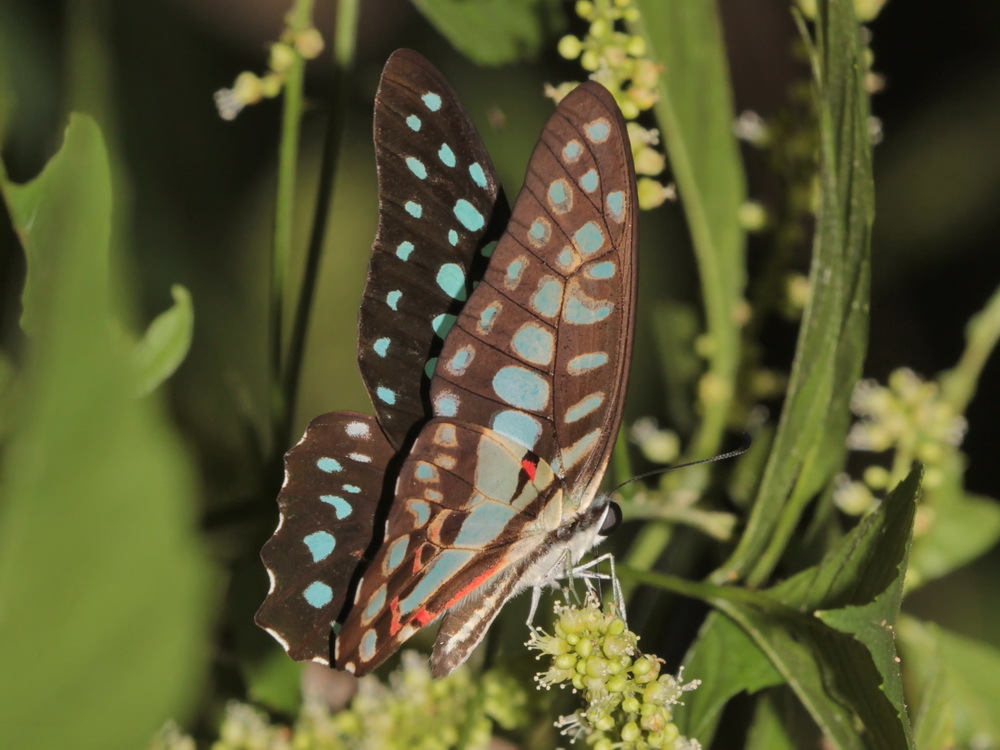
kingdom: Animalia
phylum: Arthropoda
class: Insecta
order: Lepidoptera
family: Papilionidae
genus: Graphium
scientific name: Graphium doson
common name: Common jay
